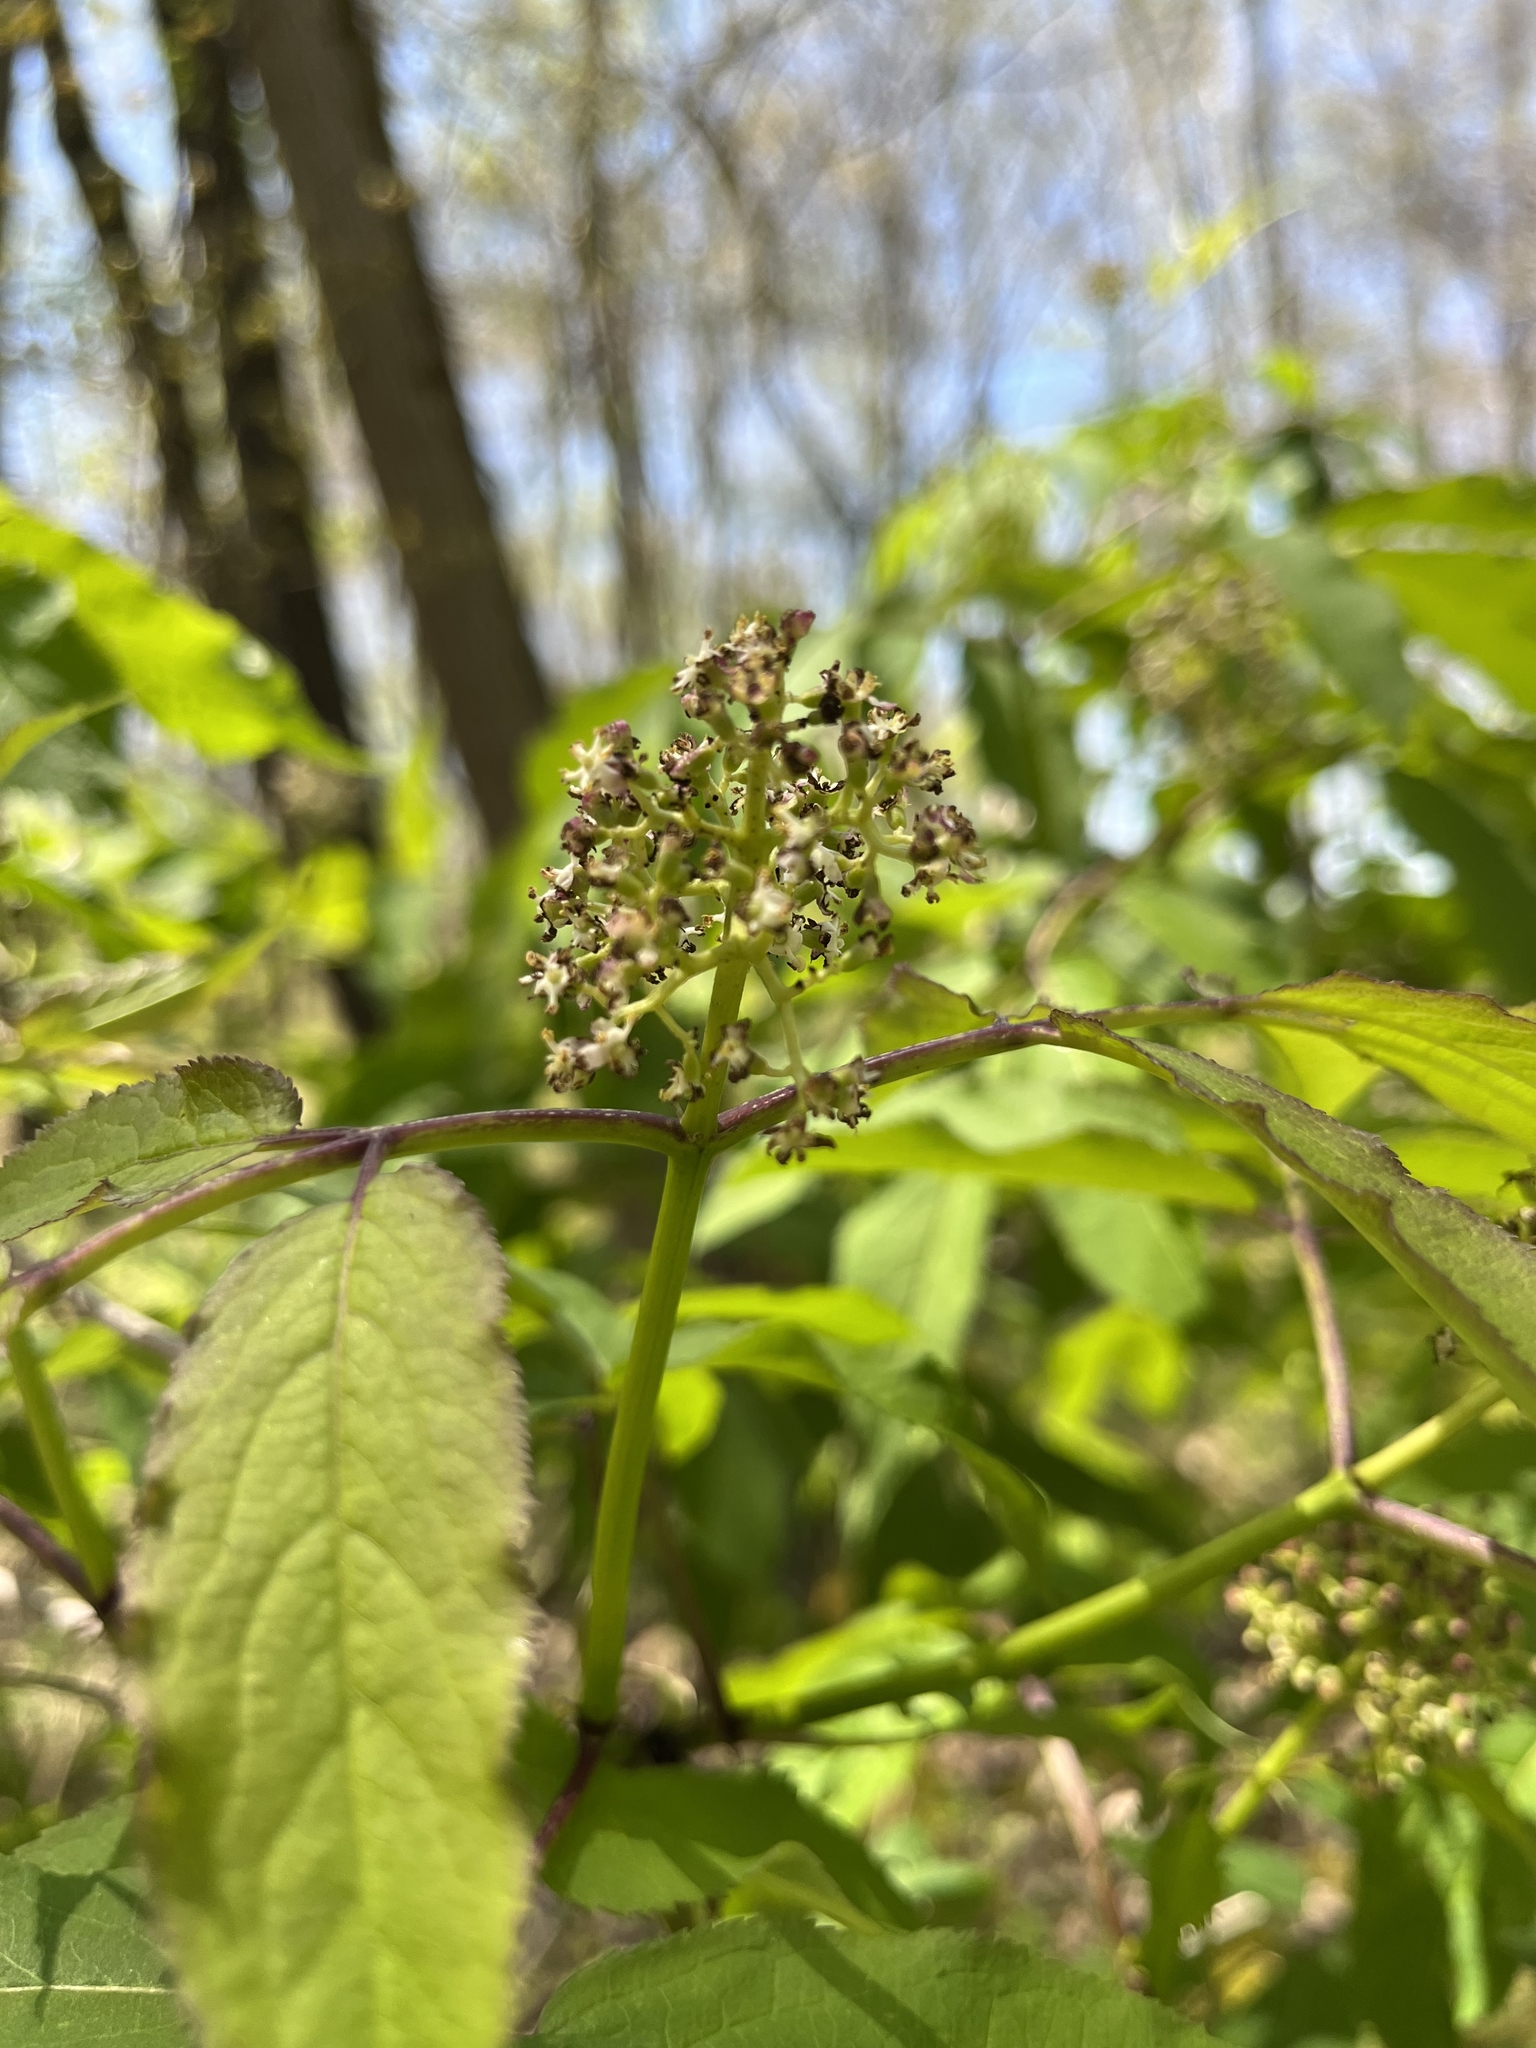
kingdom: Plantae
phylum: Tracheophyta
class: Magnoliopsida
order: Dipsacales
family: Viburnaceae
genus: Sambucus
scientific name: Sambucus racemosa
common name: Red-berried elder
